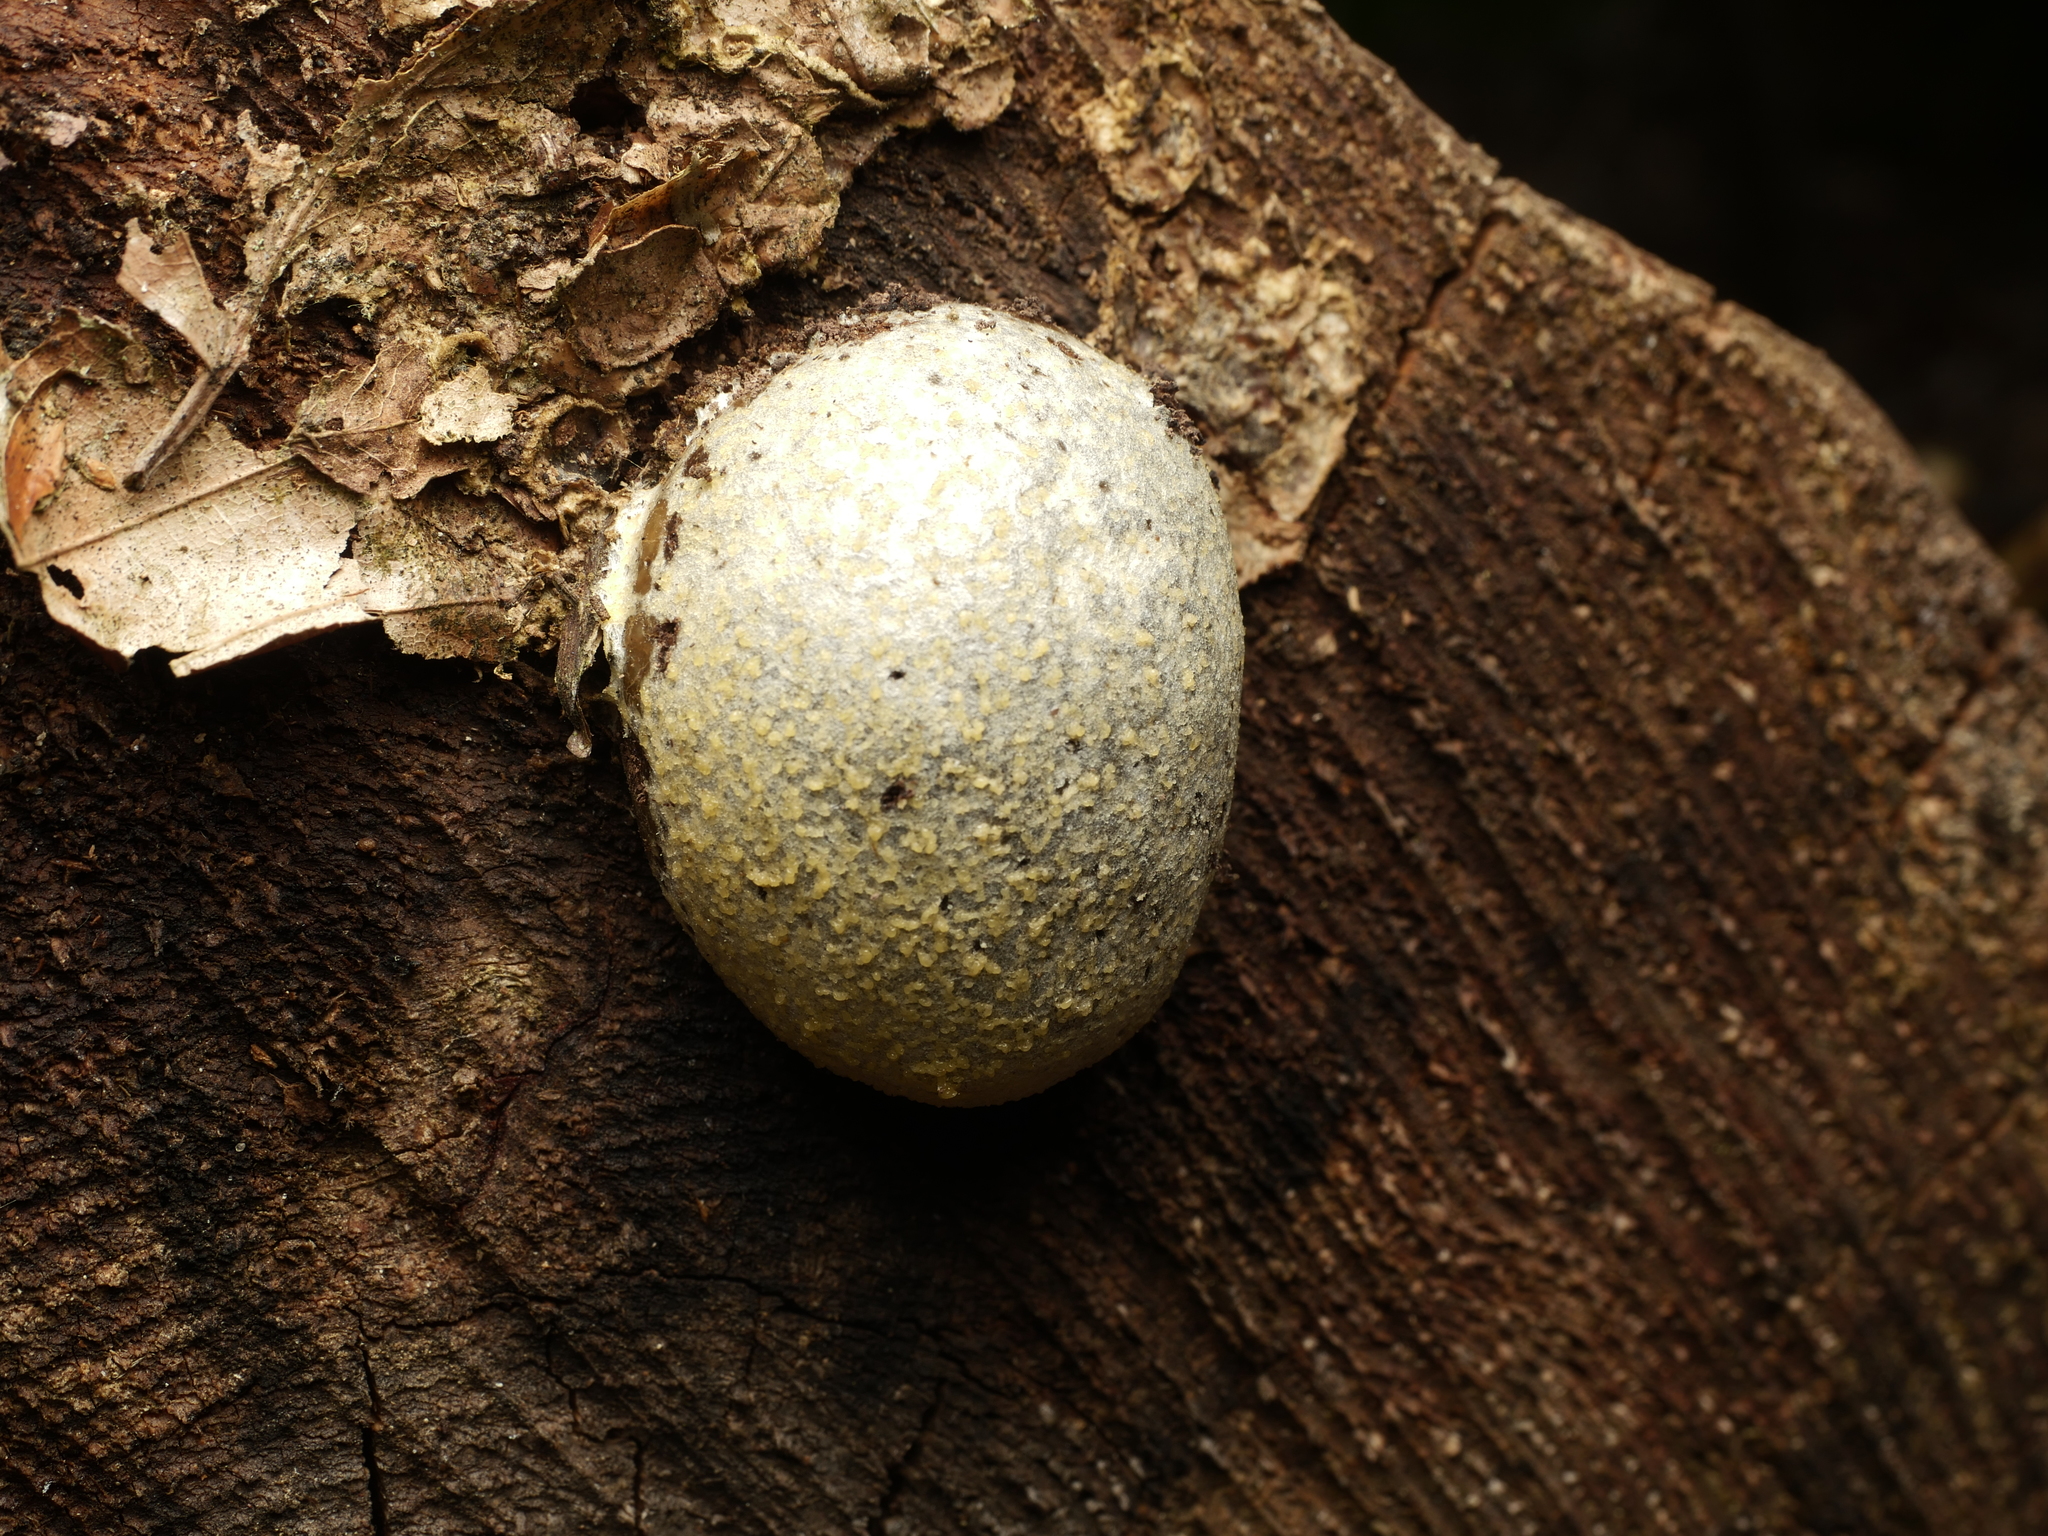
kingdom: Protozoa
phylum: Mycetozoa
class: Myxomycetes
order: Cribrariales
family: Tubiferaceae
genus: Reticularia
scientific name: Reticularia lycoperdon
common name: False puffball
